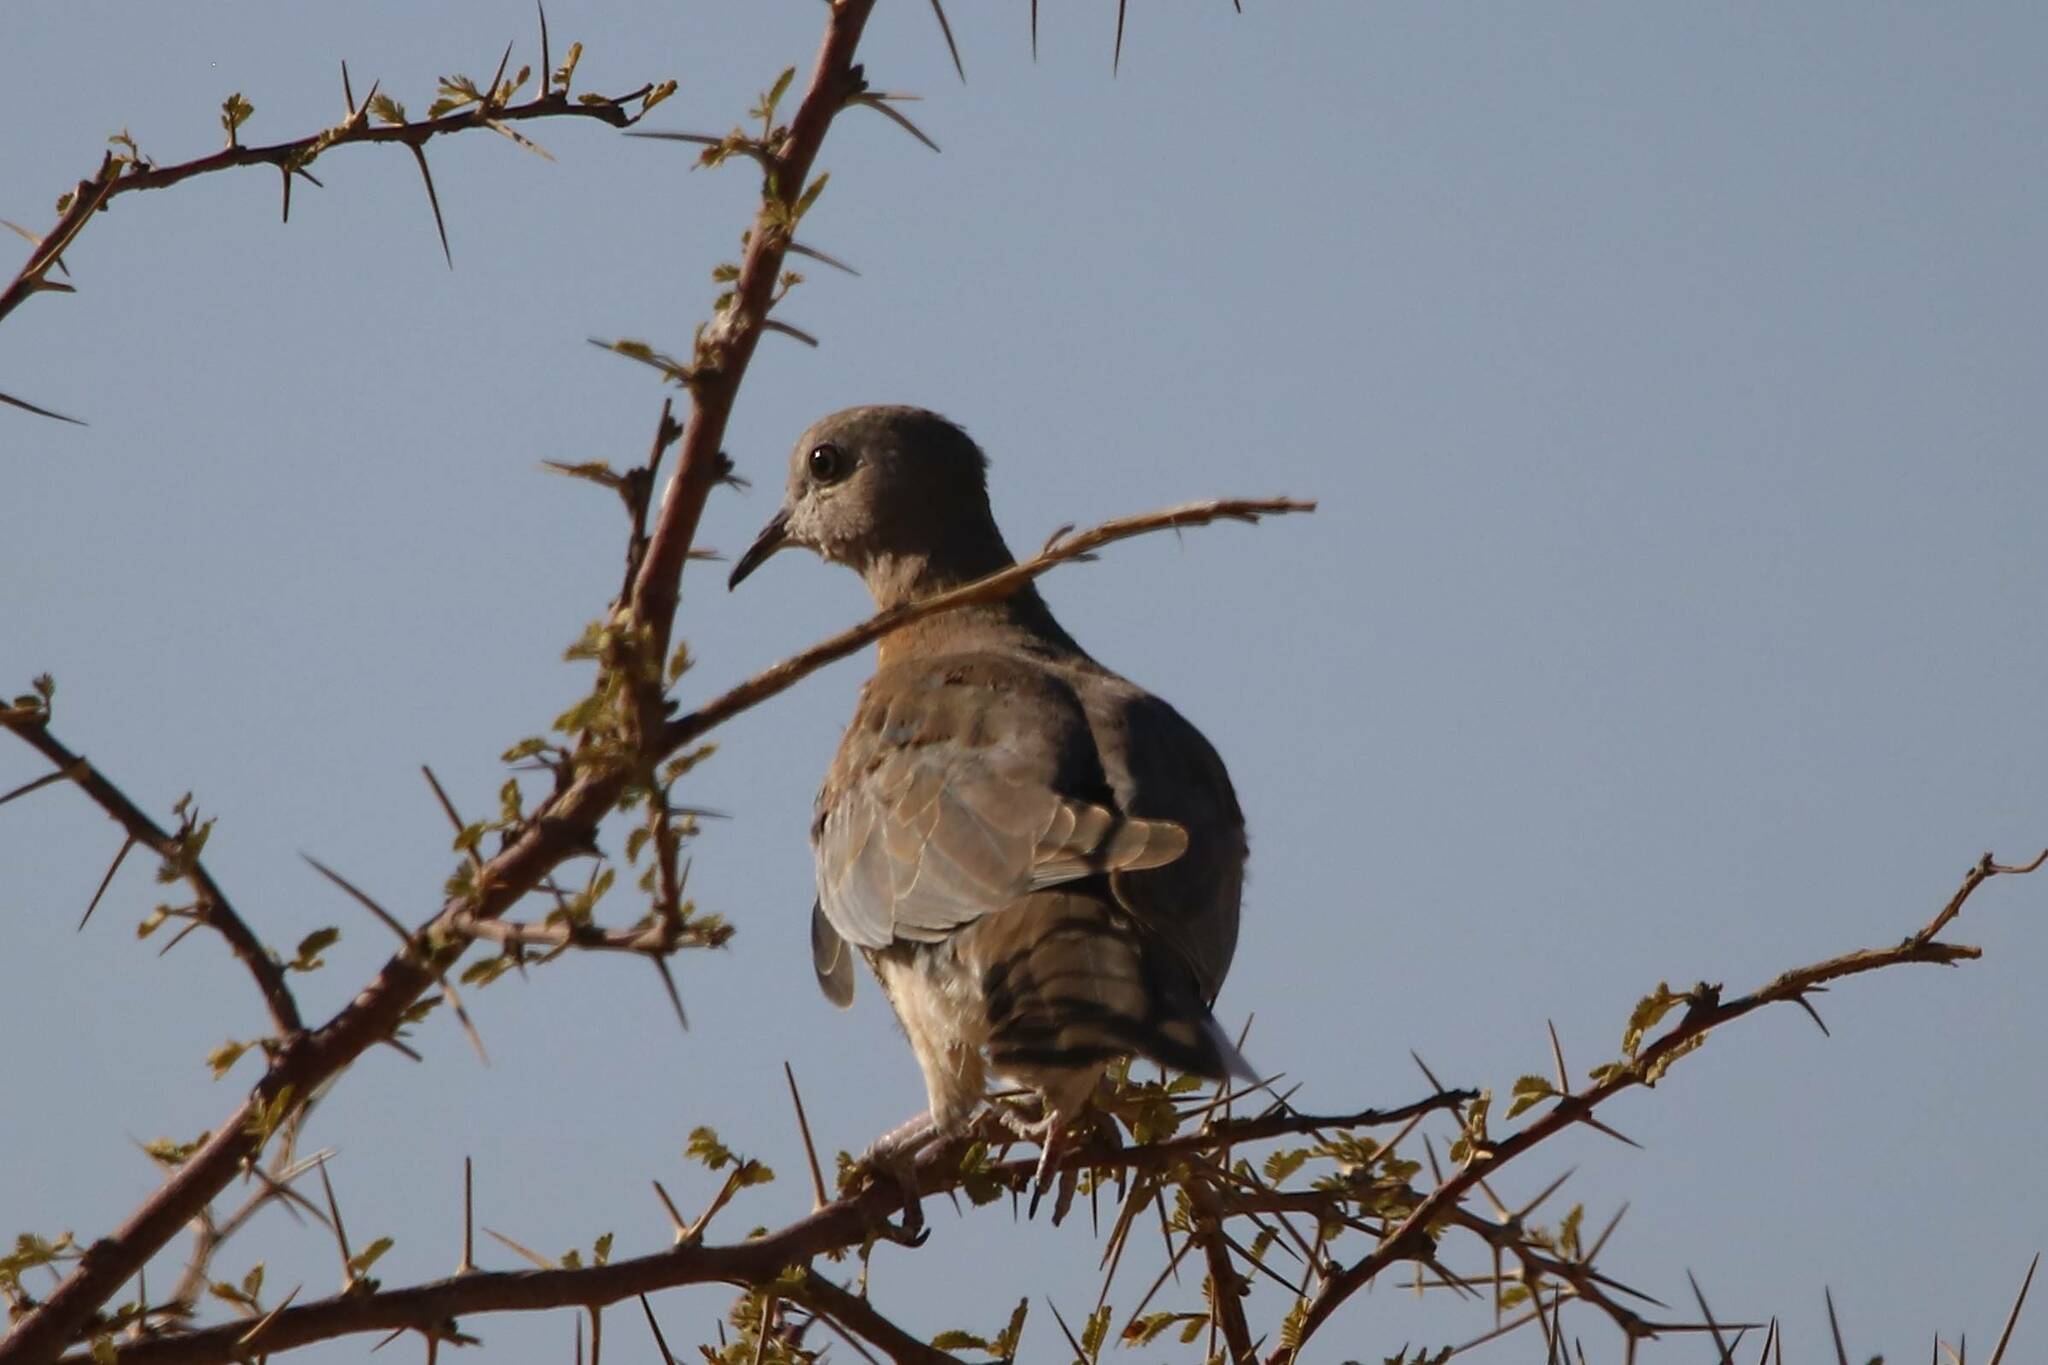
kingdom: Animalia
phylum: Chordata
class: Aves
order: Columbiformes
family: Columbidae
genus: Spilopelia
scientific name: Spilopelia senegalensis
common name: Laughing dove
